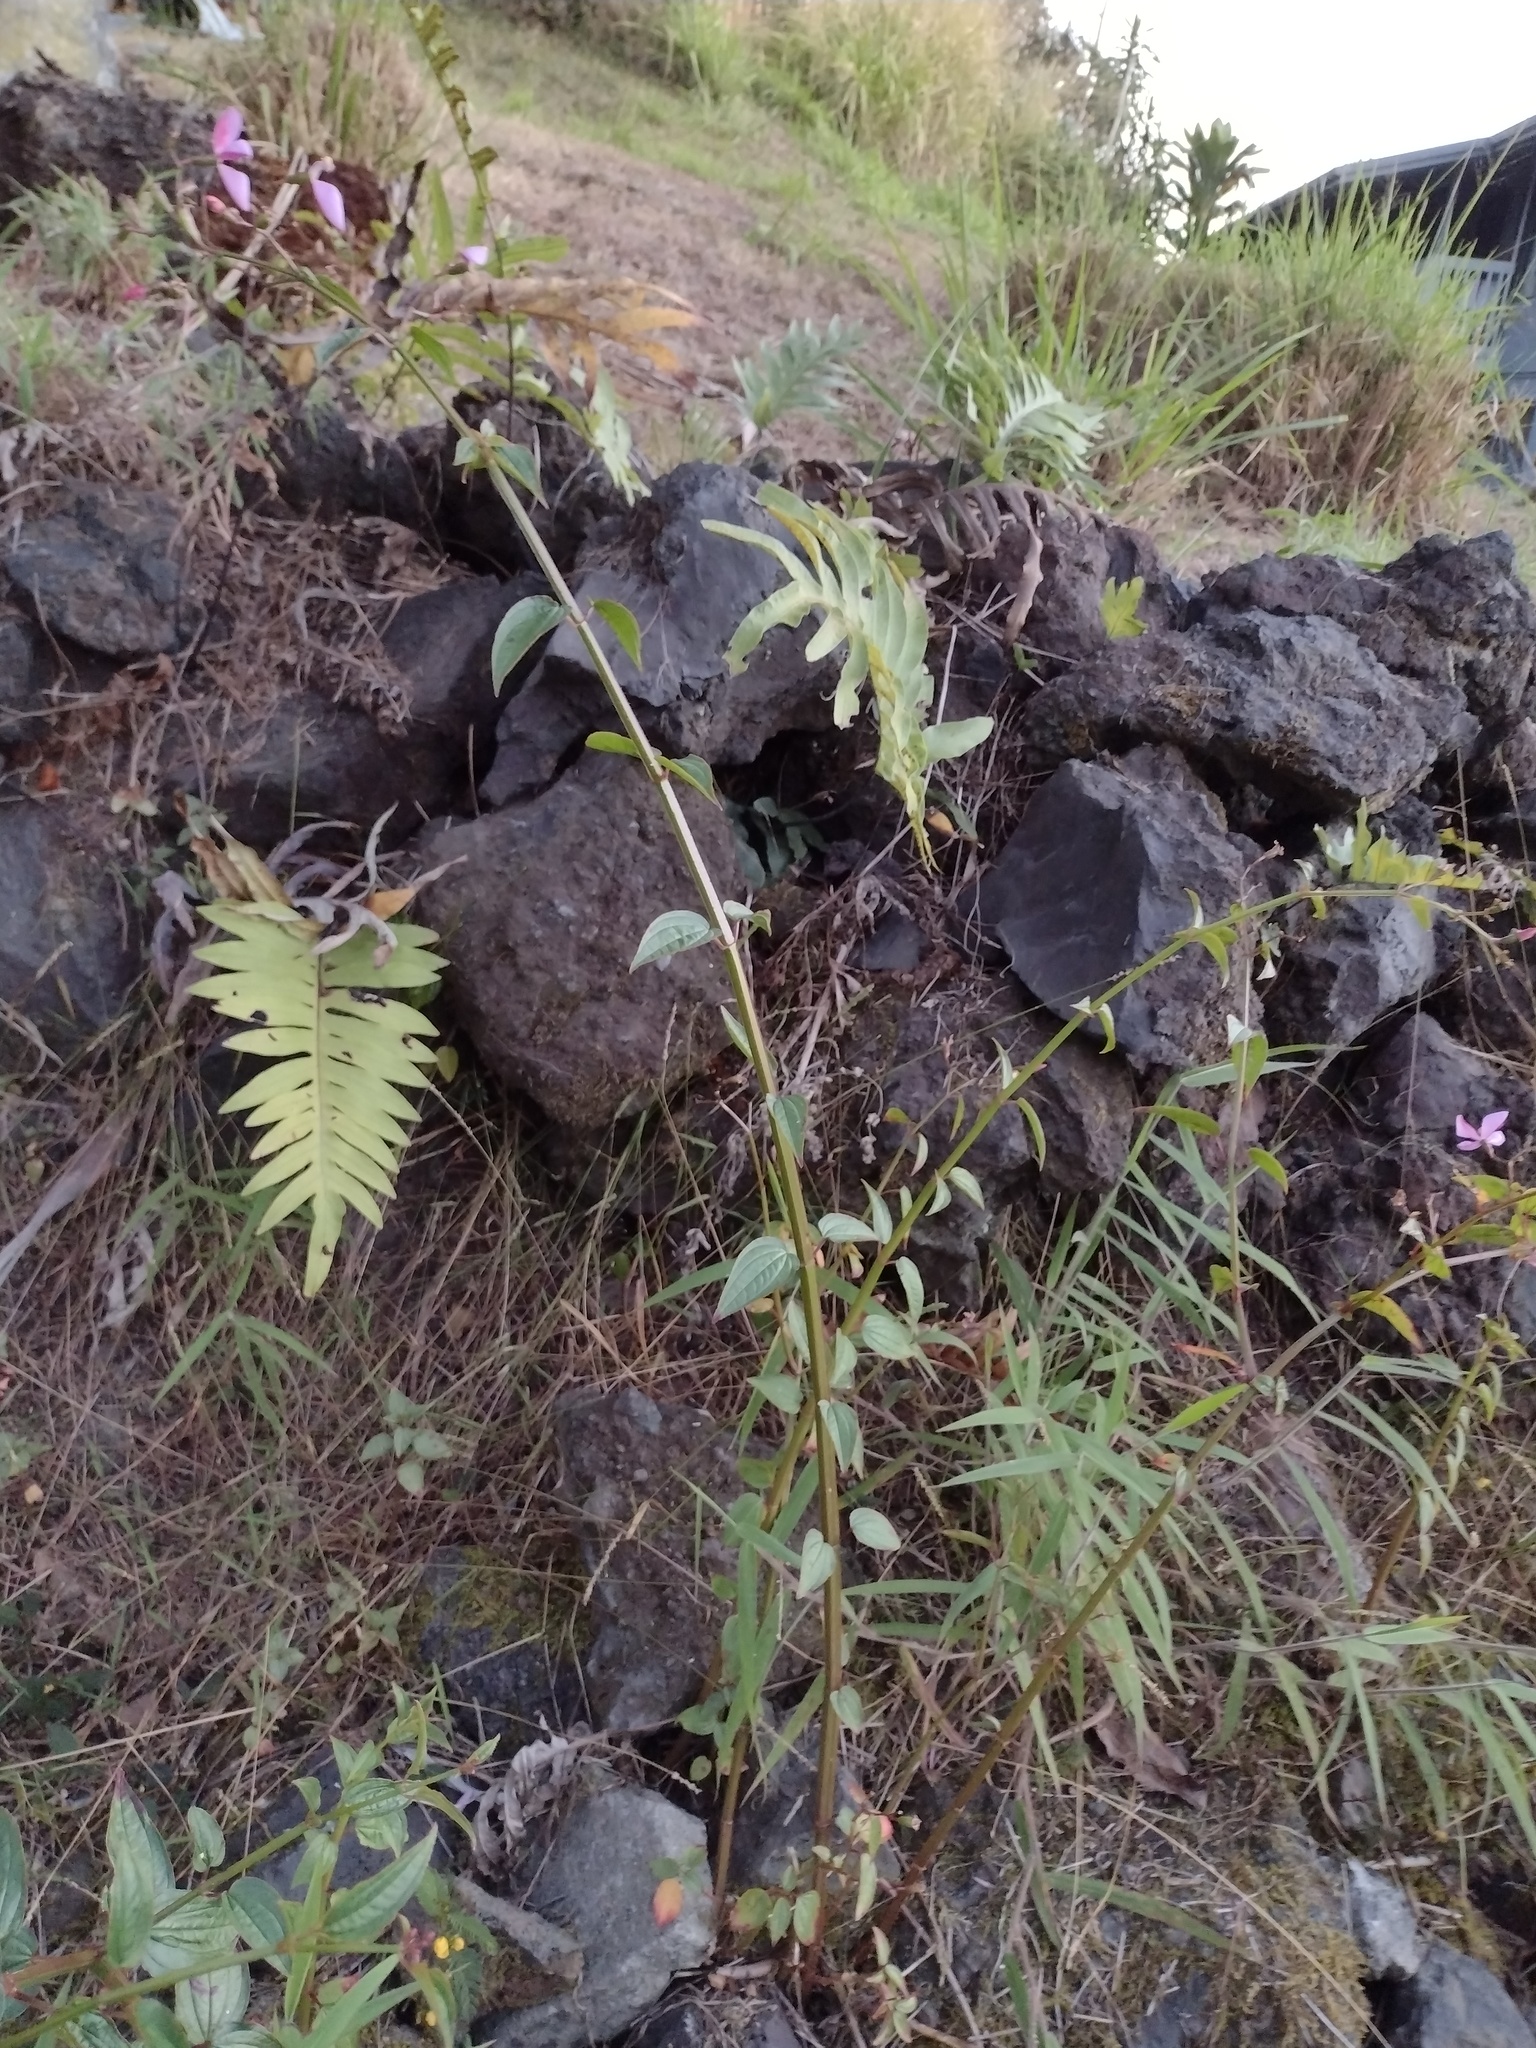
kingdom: Plantae
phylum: Tracheophyta
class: Polypodiopsida
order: Polypodiales
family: Polypodiaceae
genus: Phlebodium
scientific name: Phlebodium aureum
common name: Gold-foot fern
